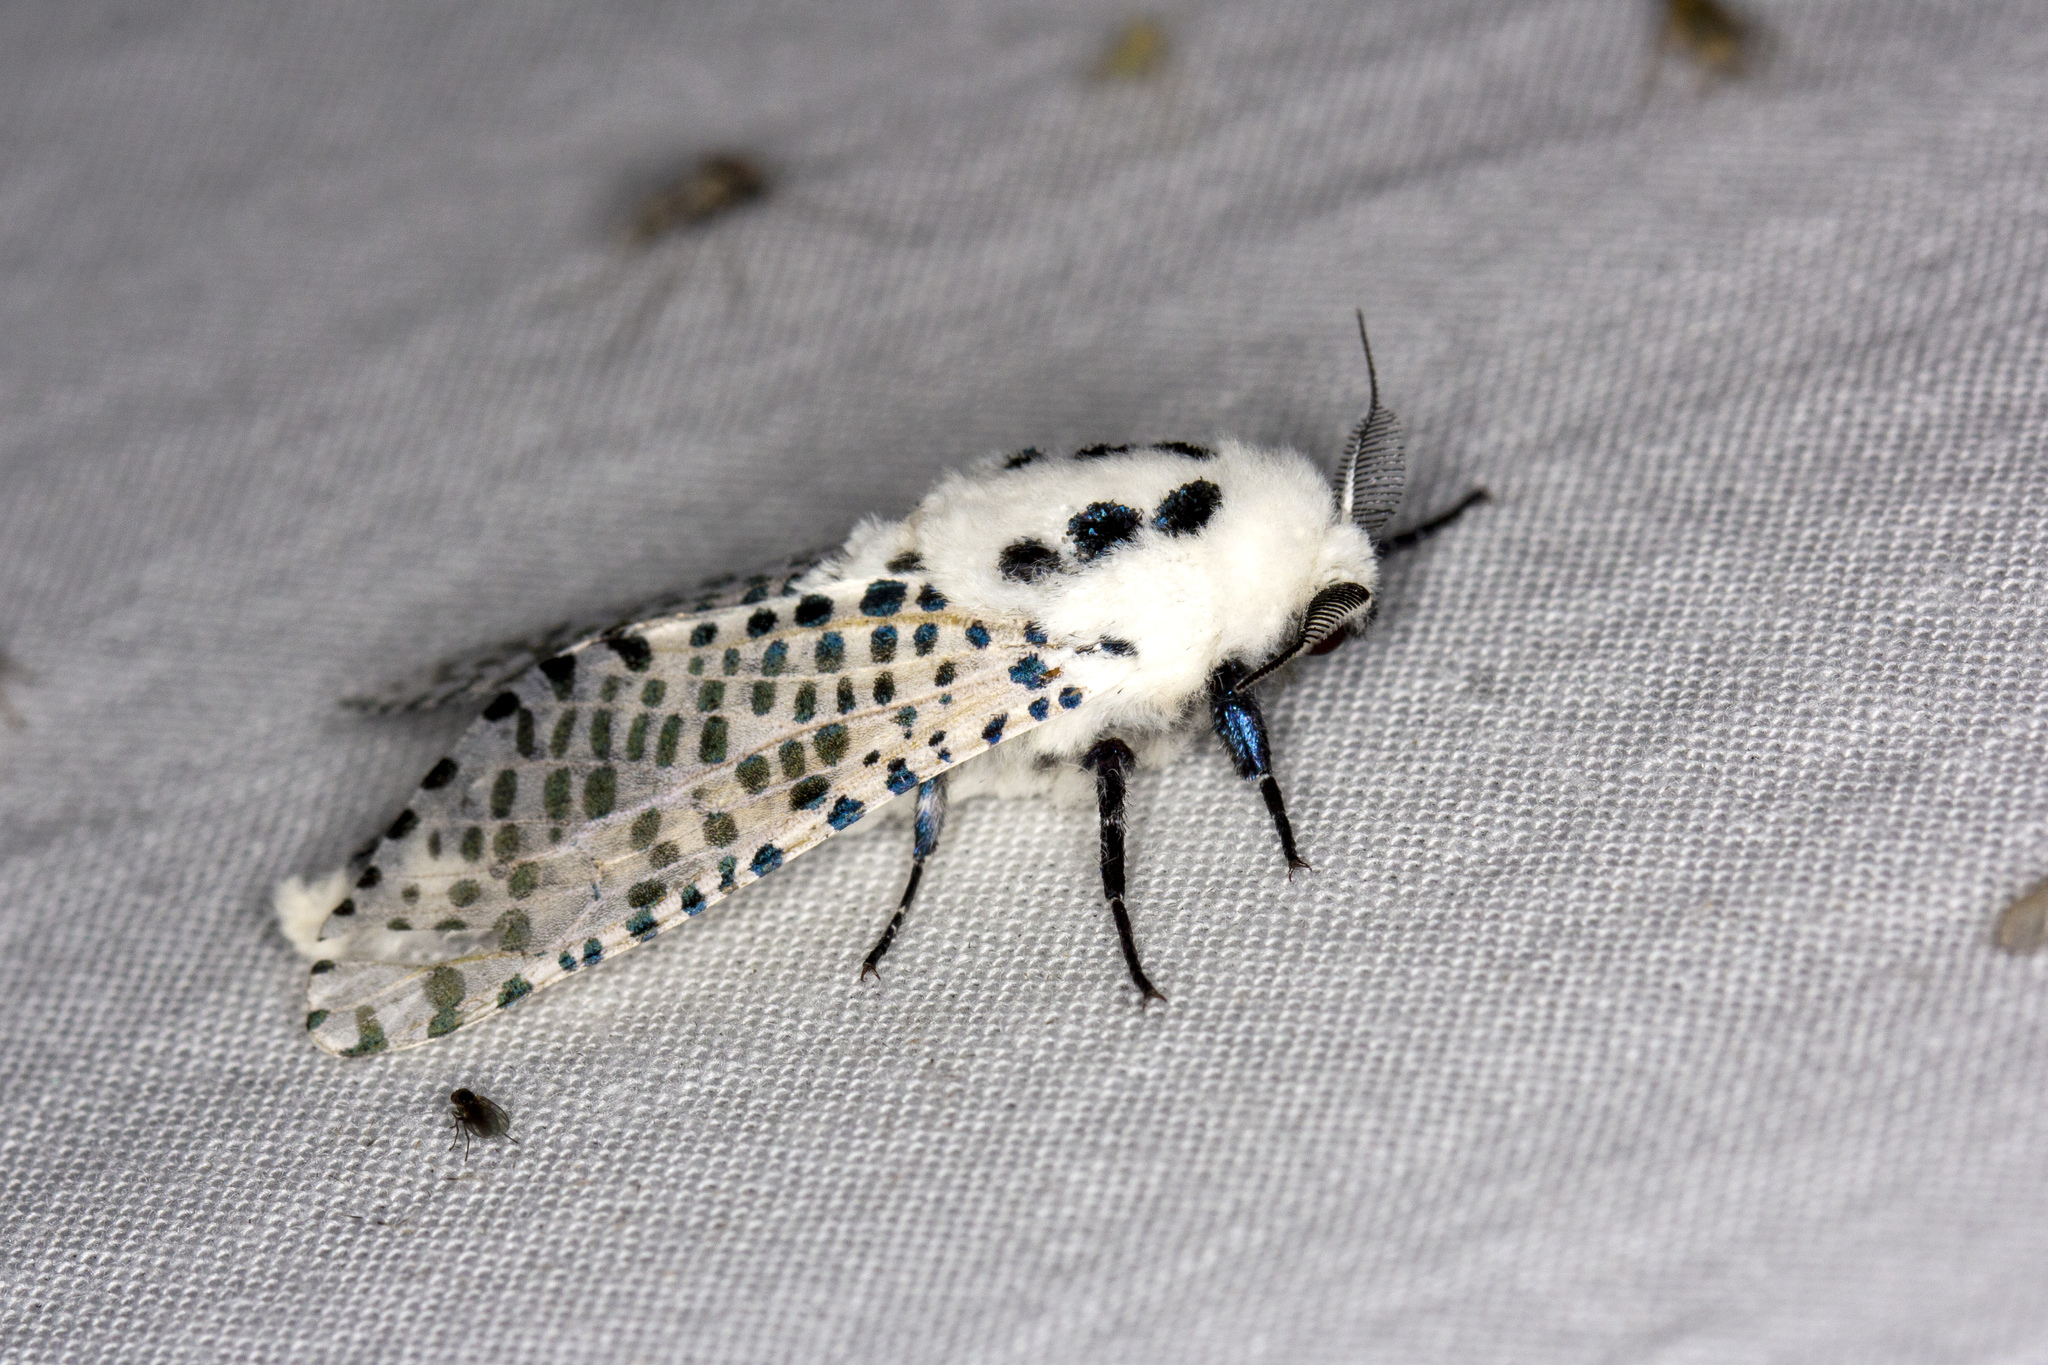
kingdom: Animalia
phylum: Arthropoda
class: Insecta
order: Lepidoptera
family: Cossidae
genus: Zeuzera
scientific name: Zeuzera pyrina
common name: Leopard moth
